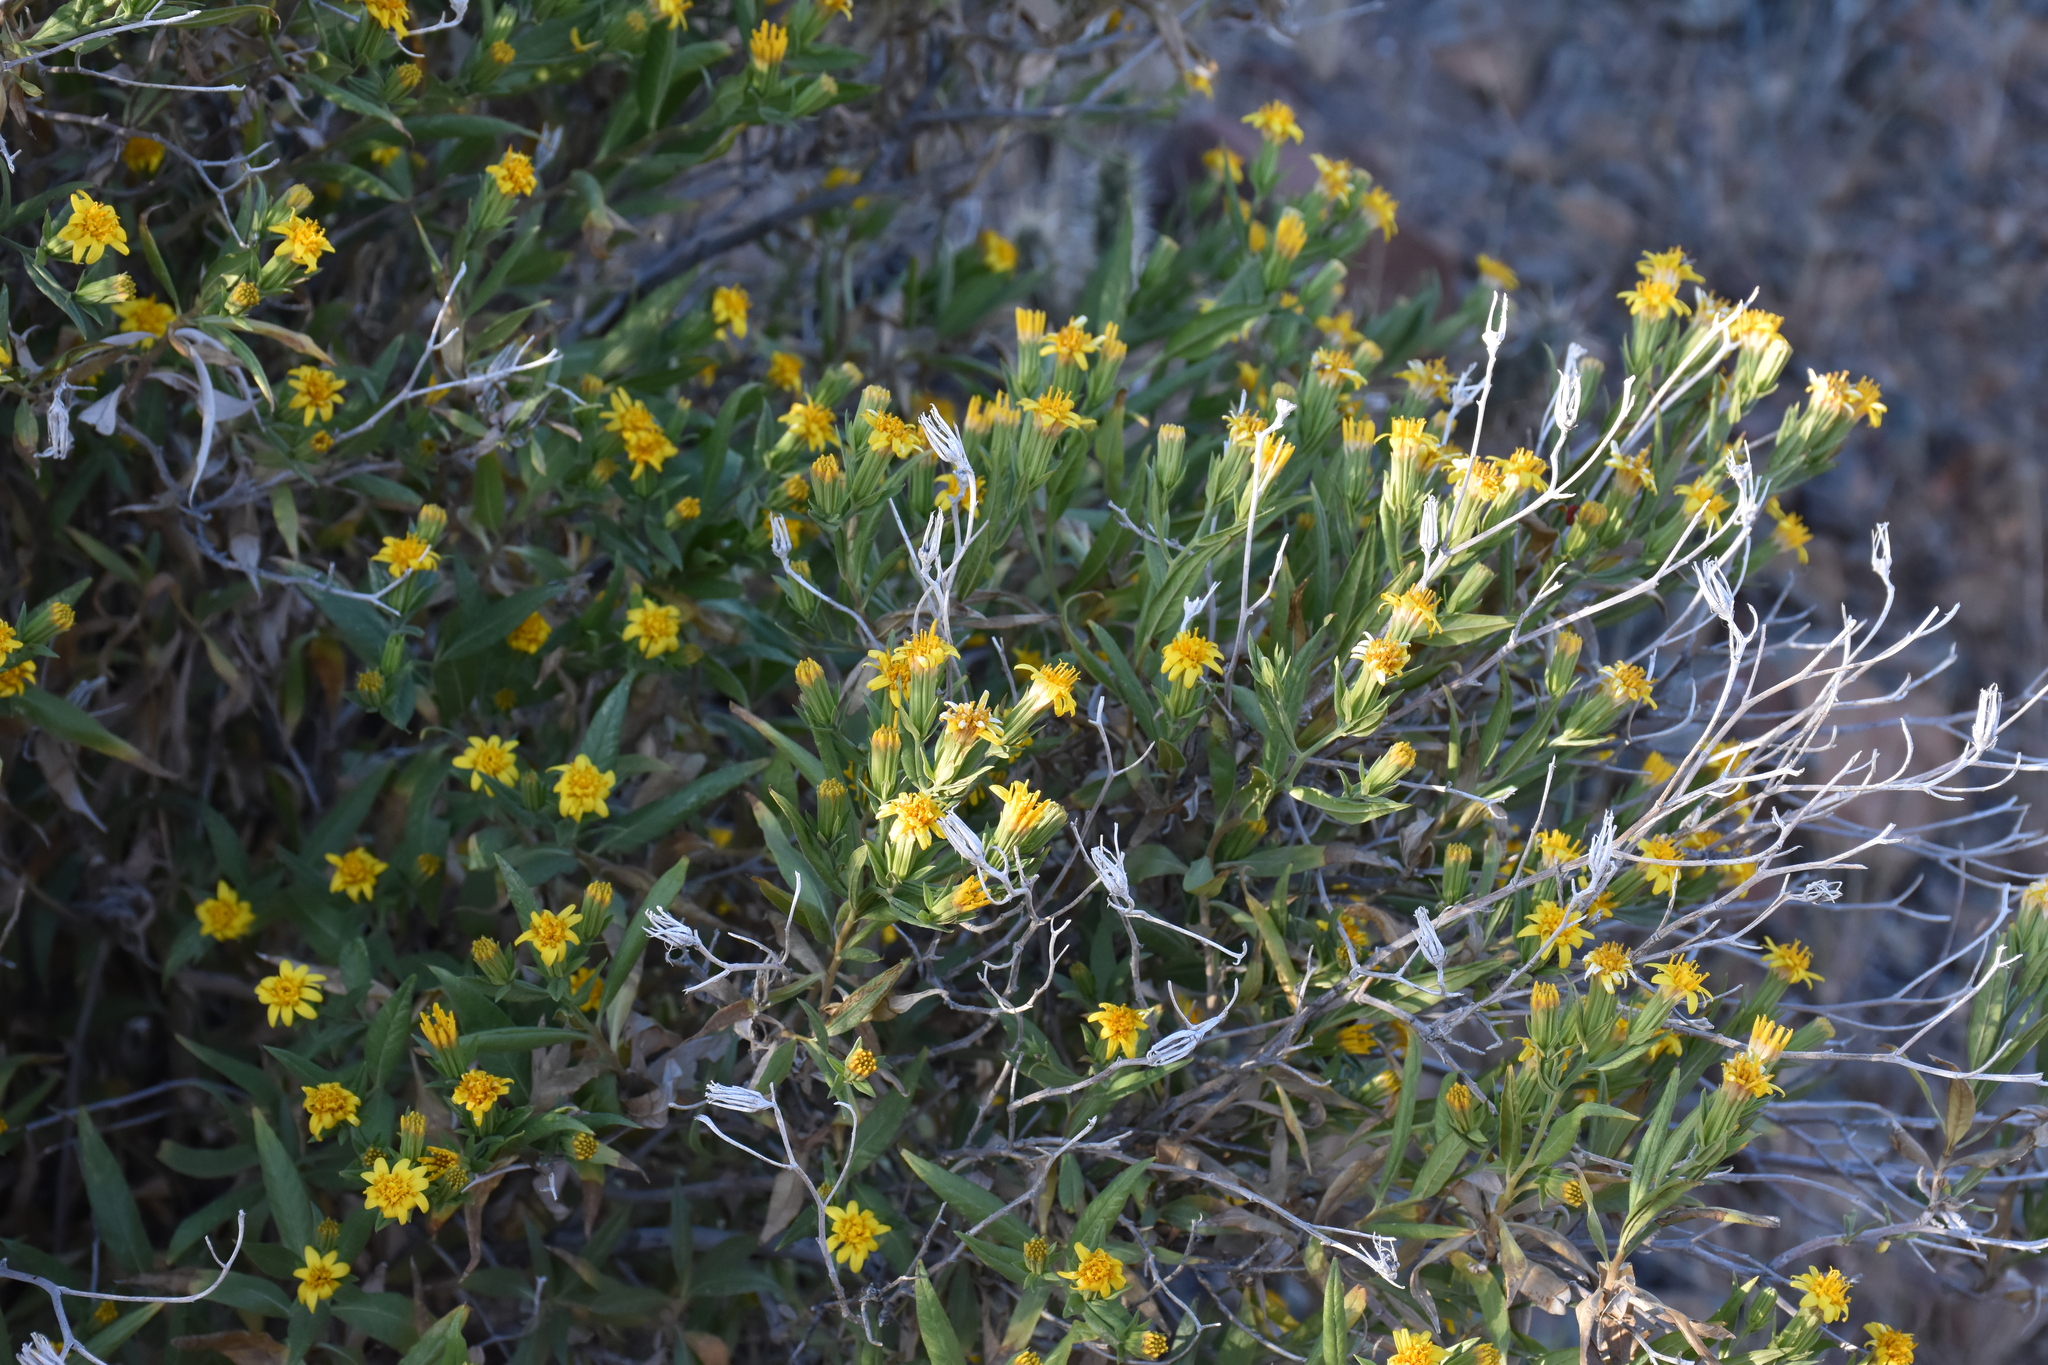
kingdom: Plantae
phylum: Tracheophyta
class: Magnoliopsida
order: Asterales
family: Asteraceae
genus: Trixis
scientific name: Trixis californica
